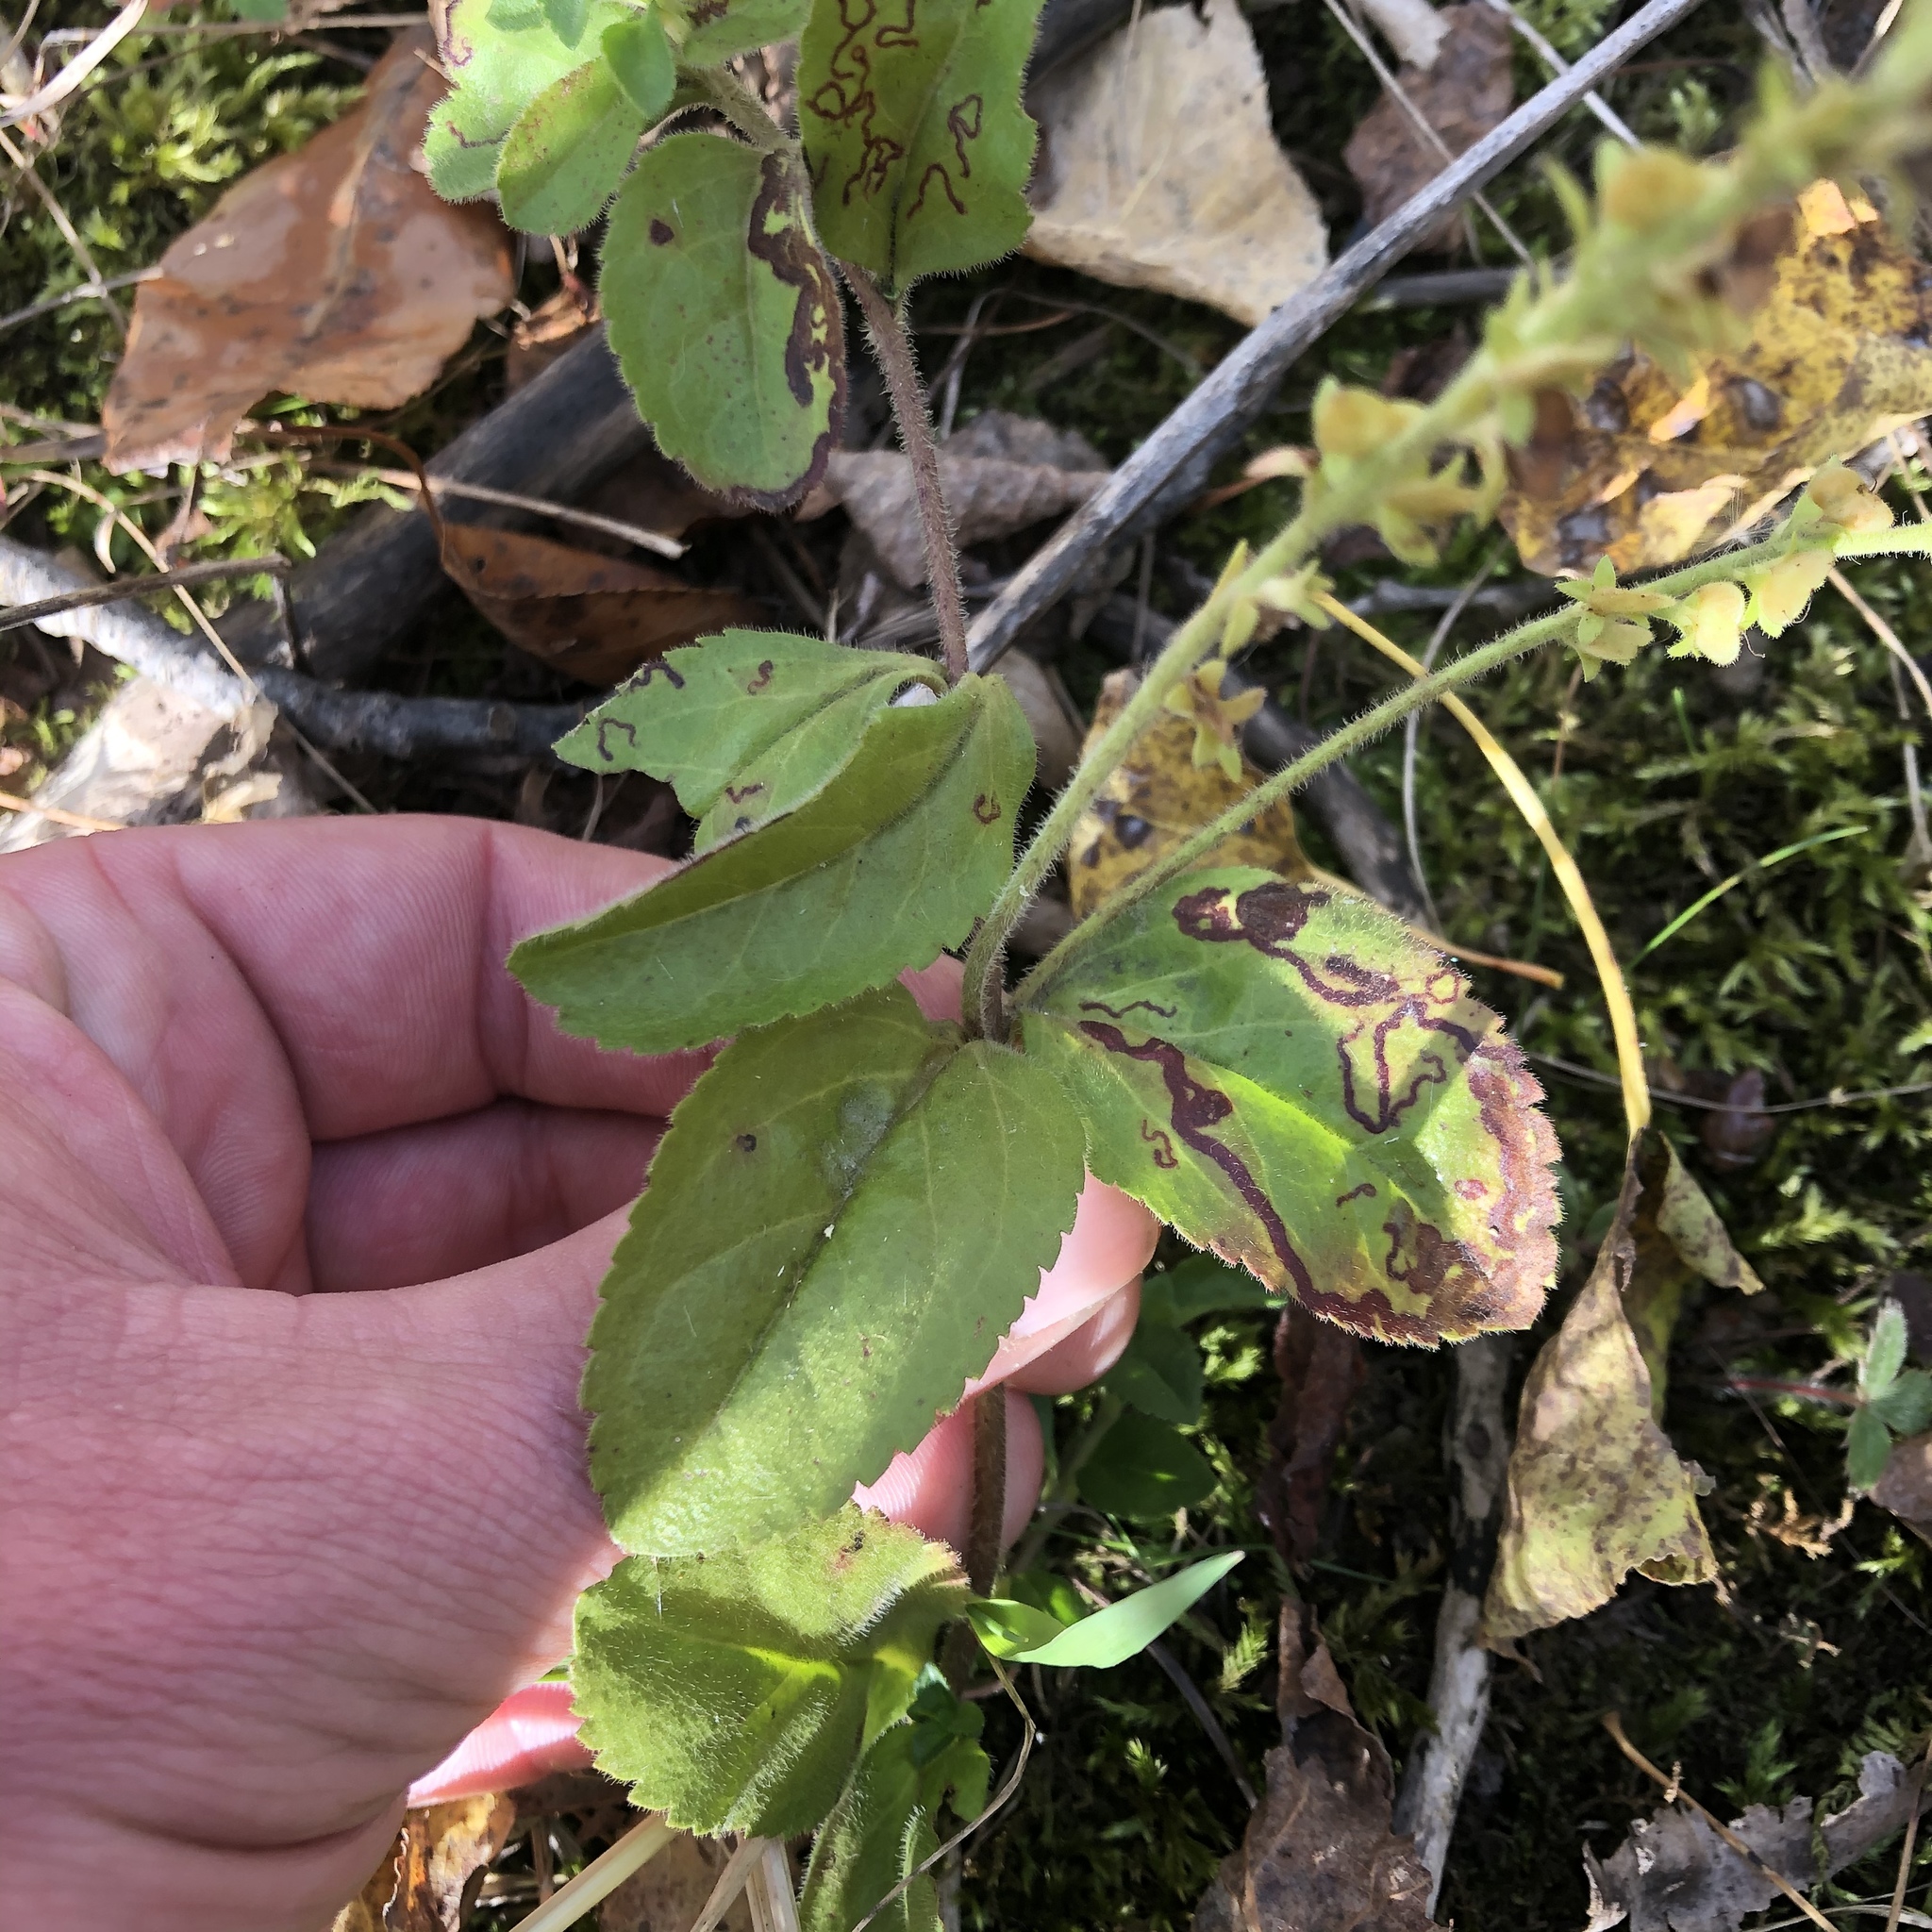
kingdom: Plantae
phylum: Tracheophyta
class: Magnoliopsida
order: Lamiales
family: Plantaginaceae
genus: Veronica
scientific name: Veronica officinalis
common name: Common speedwell
